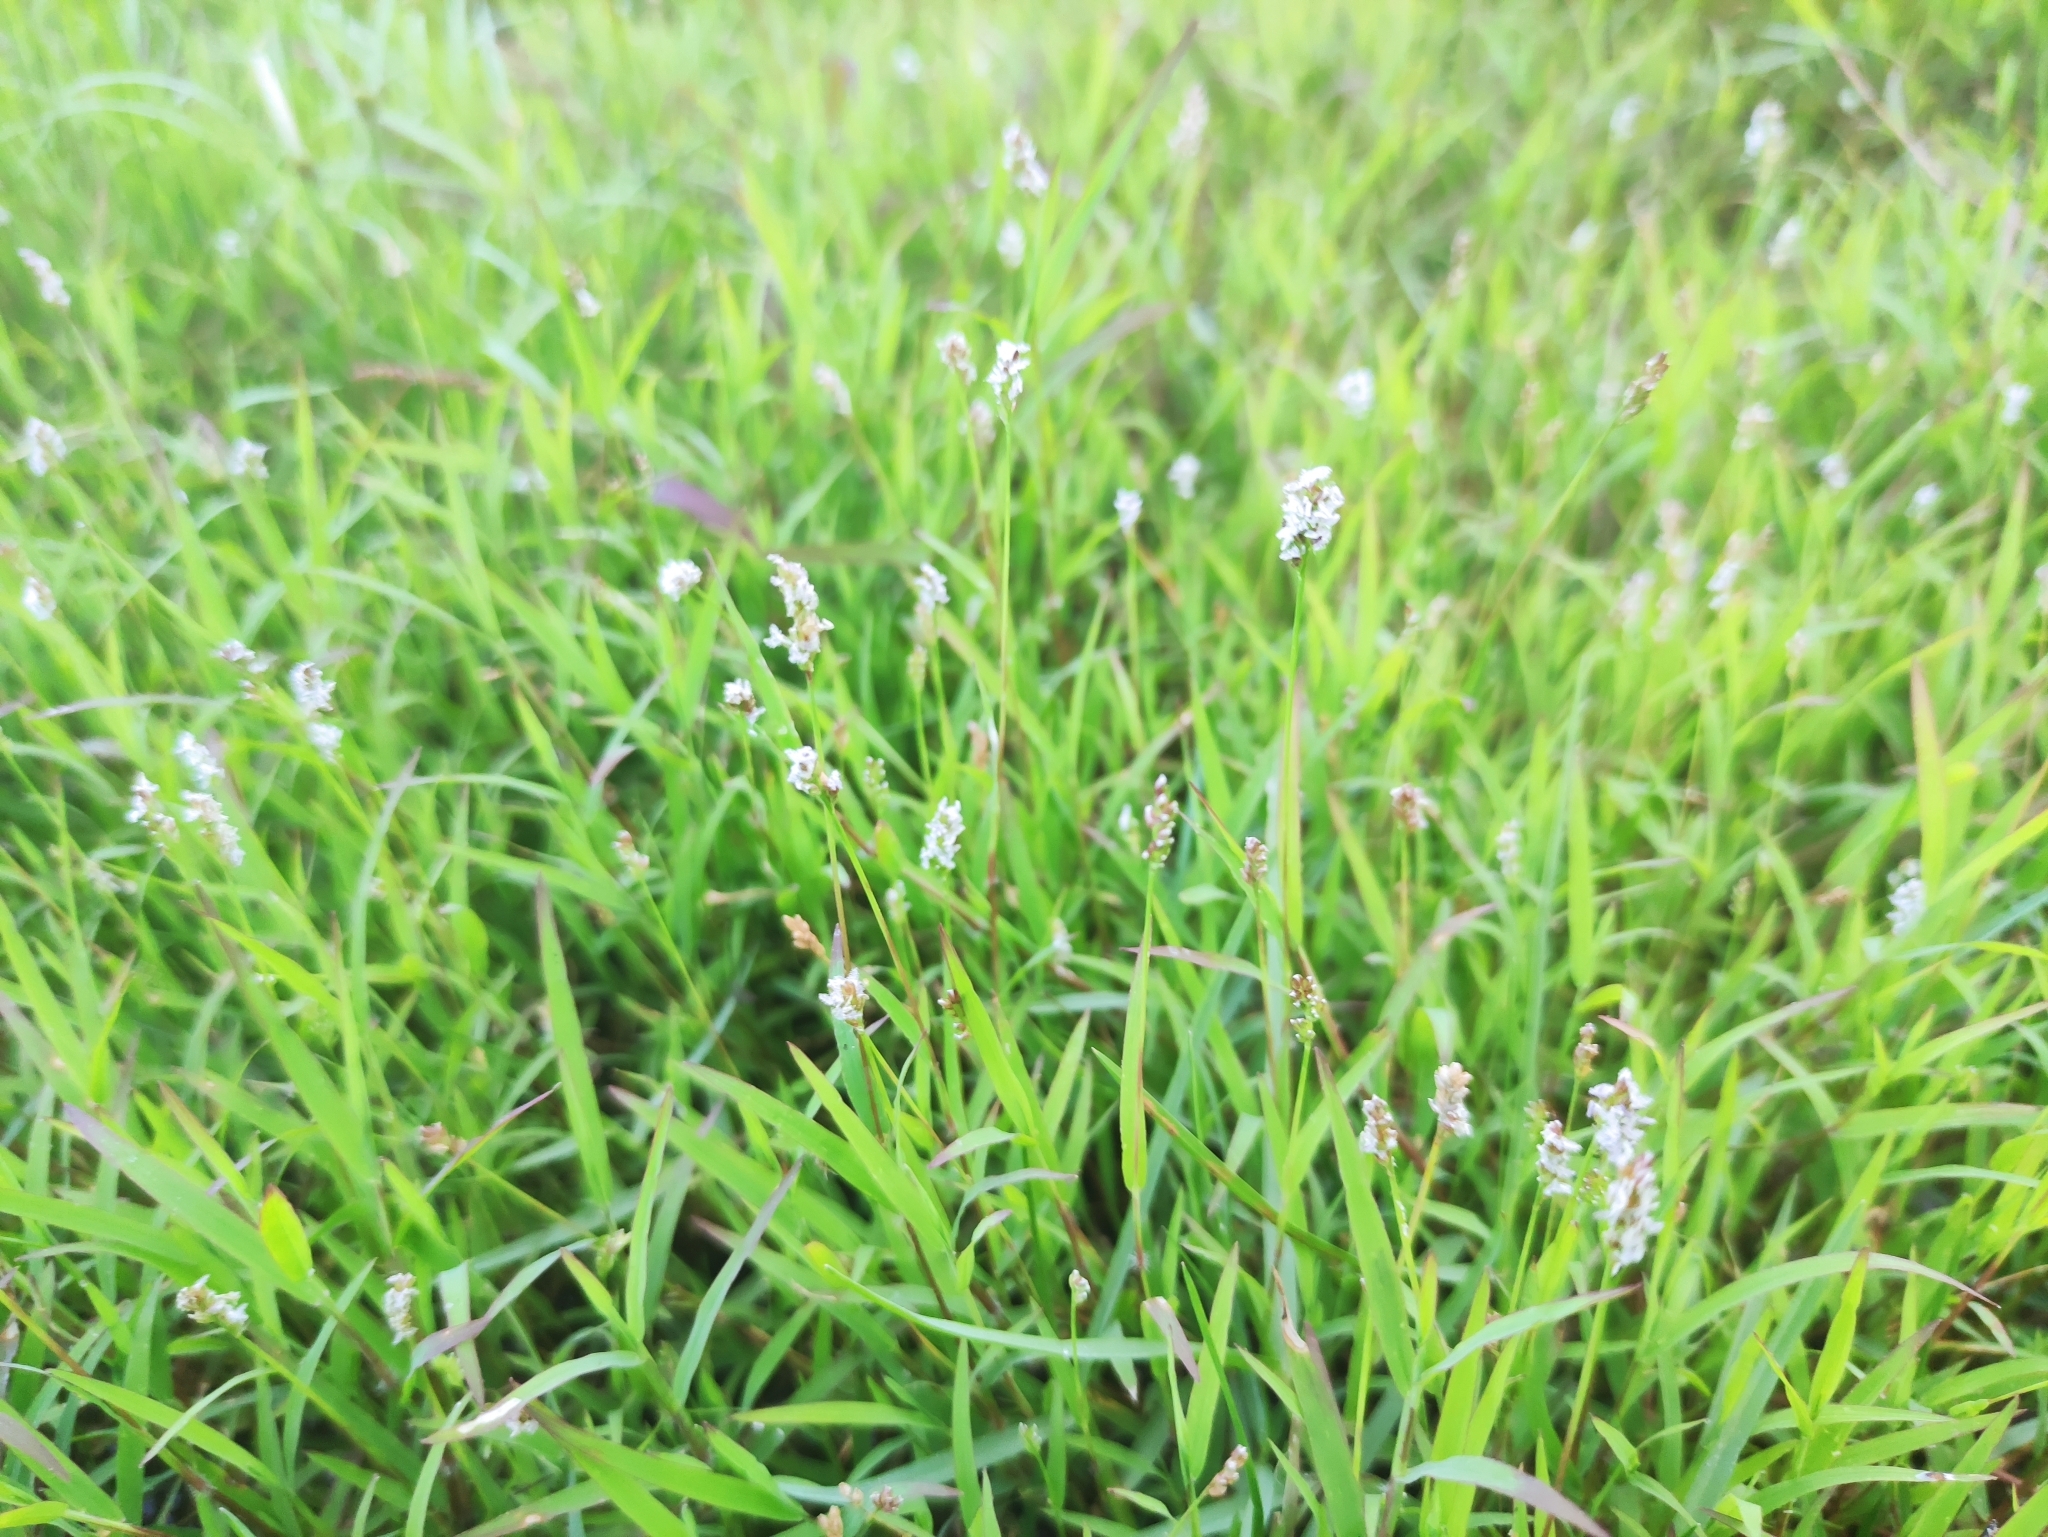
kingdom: Plantae
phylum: Tracheophyta
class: Liliopsida
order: Poales
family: Poaceae
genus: Acroceras
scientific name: Acroceras hubbardii
